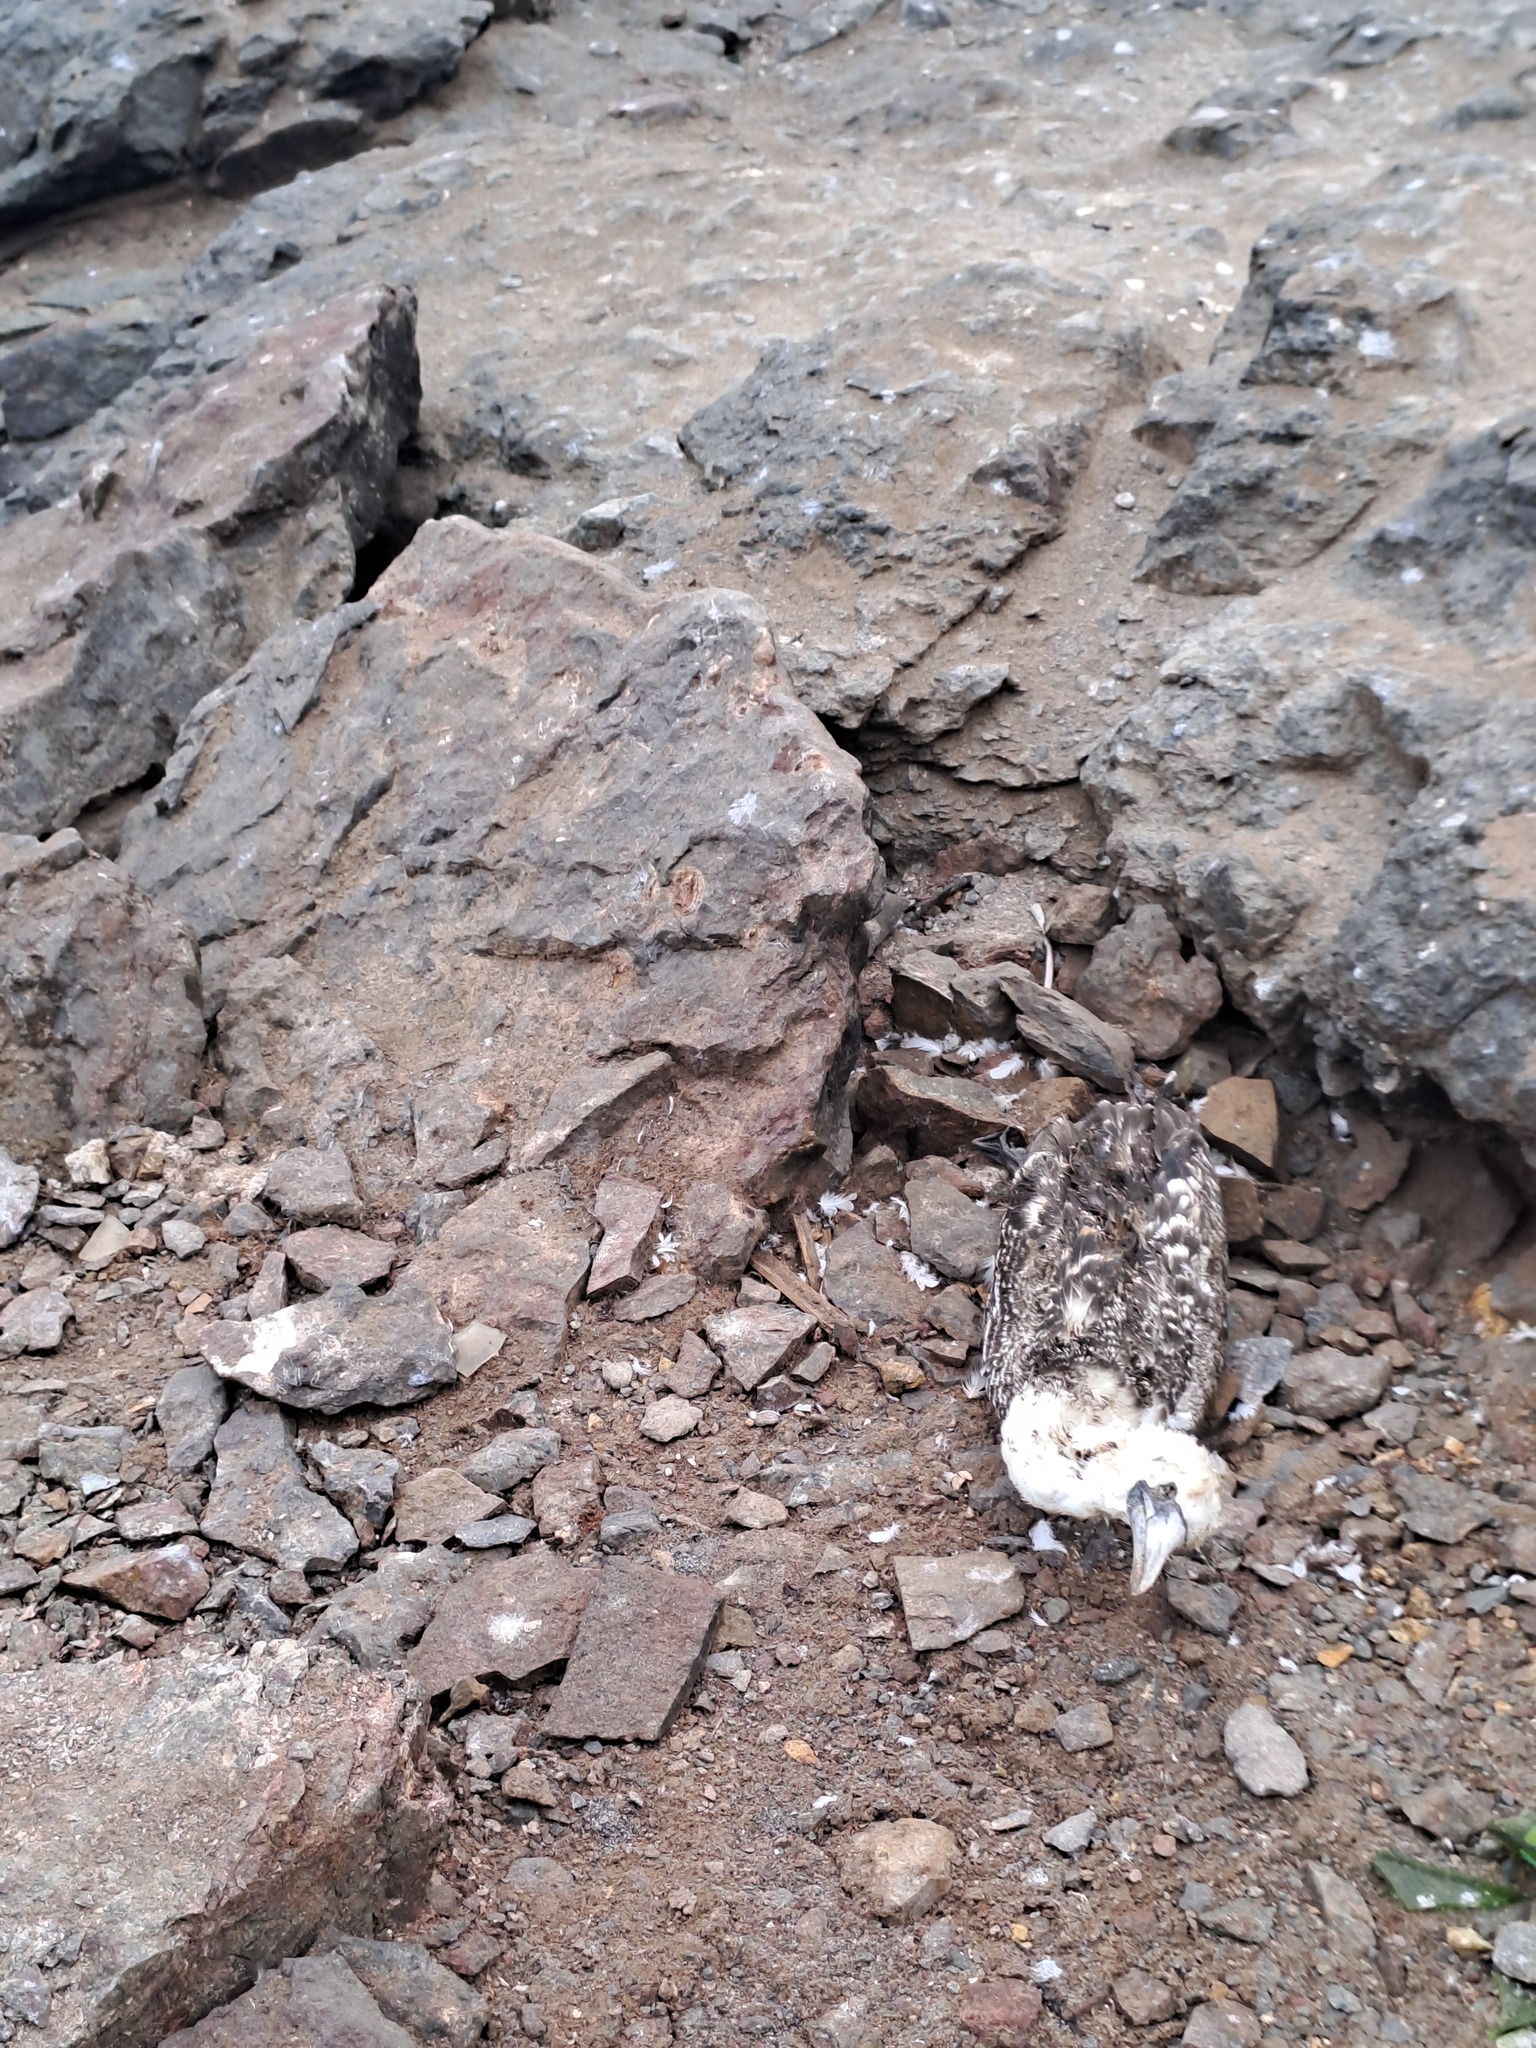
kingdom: Animalia
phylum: Chordata
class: Aves
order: Suliformes
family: Sulidae
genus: Sula
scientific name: Sula variegata
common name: Peruvian booby
